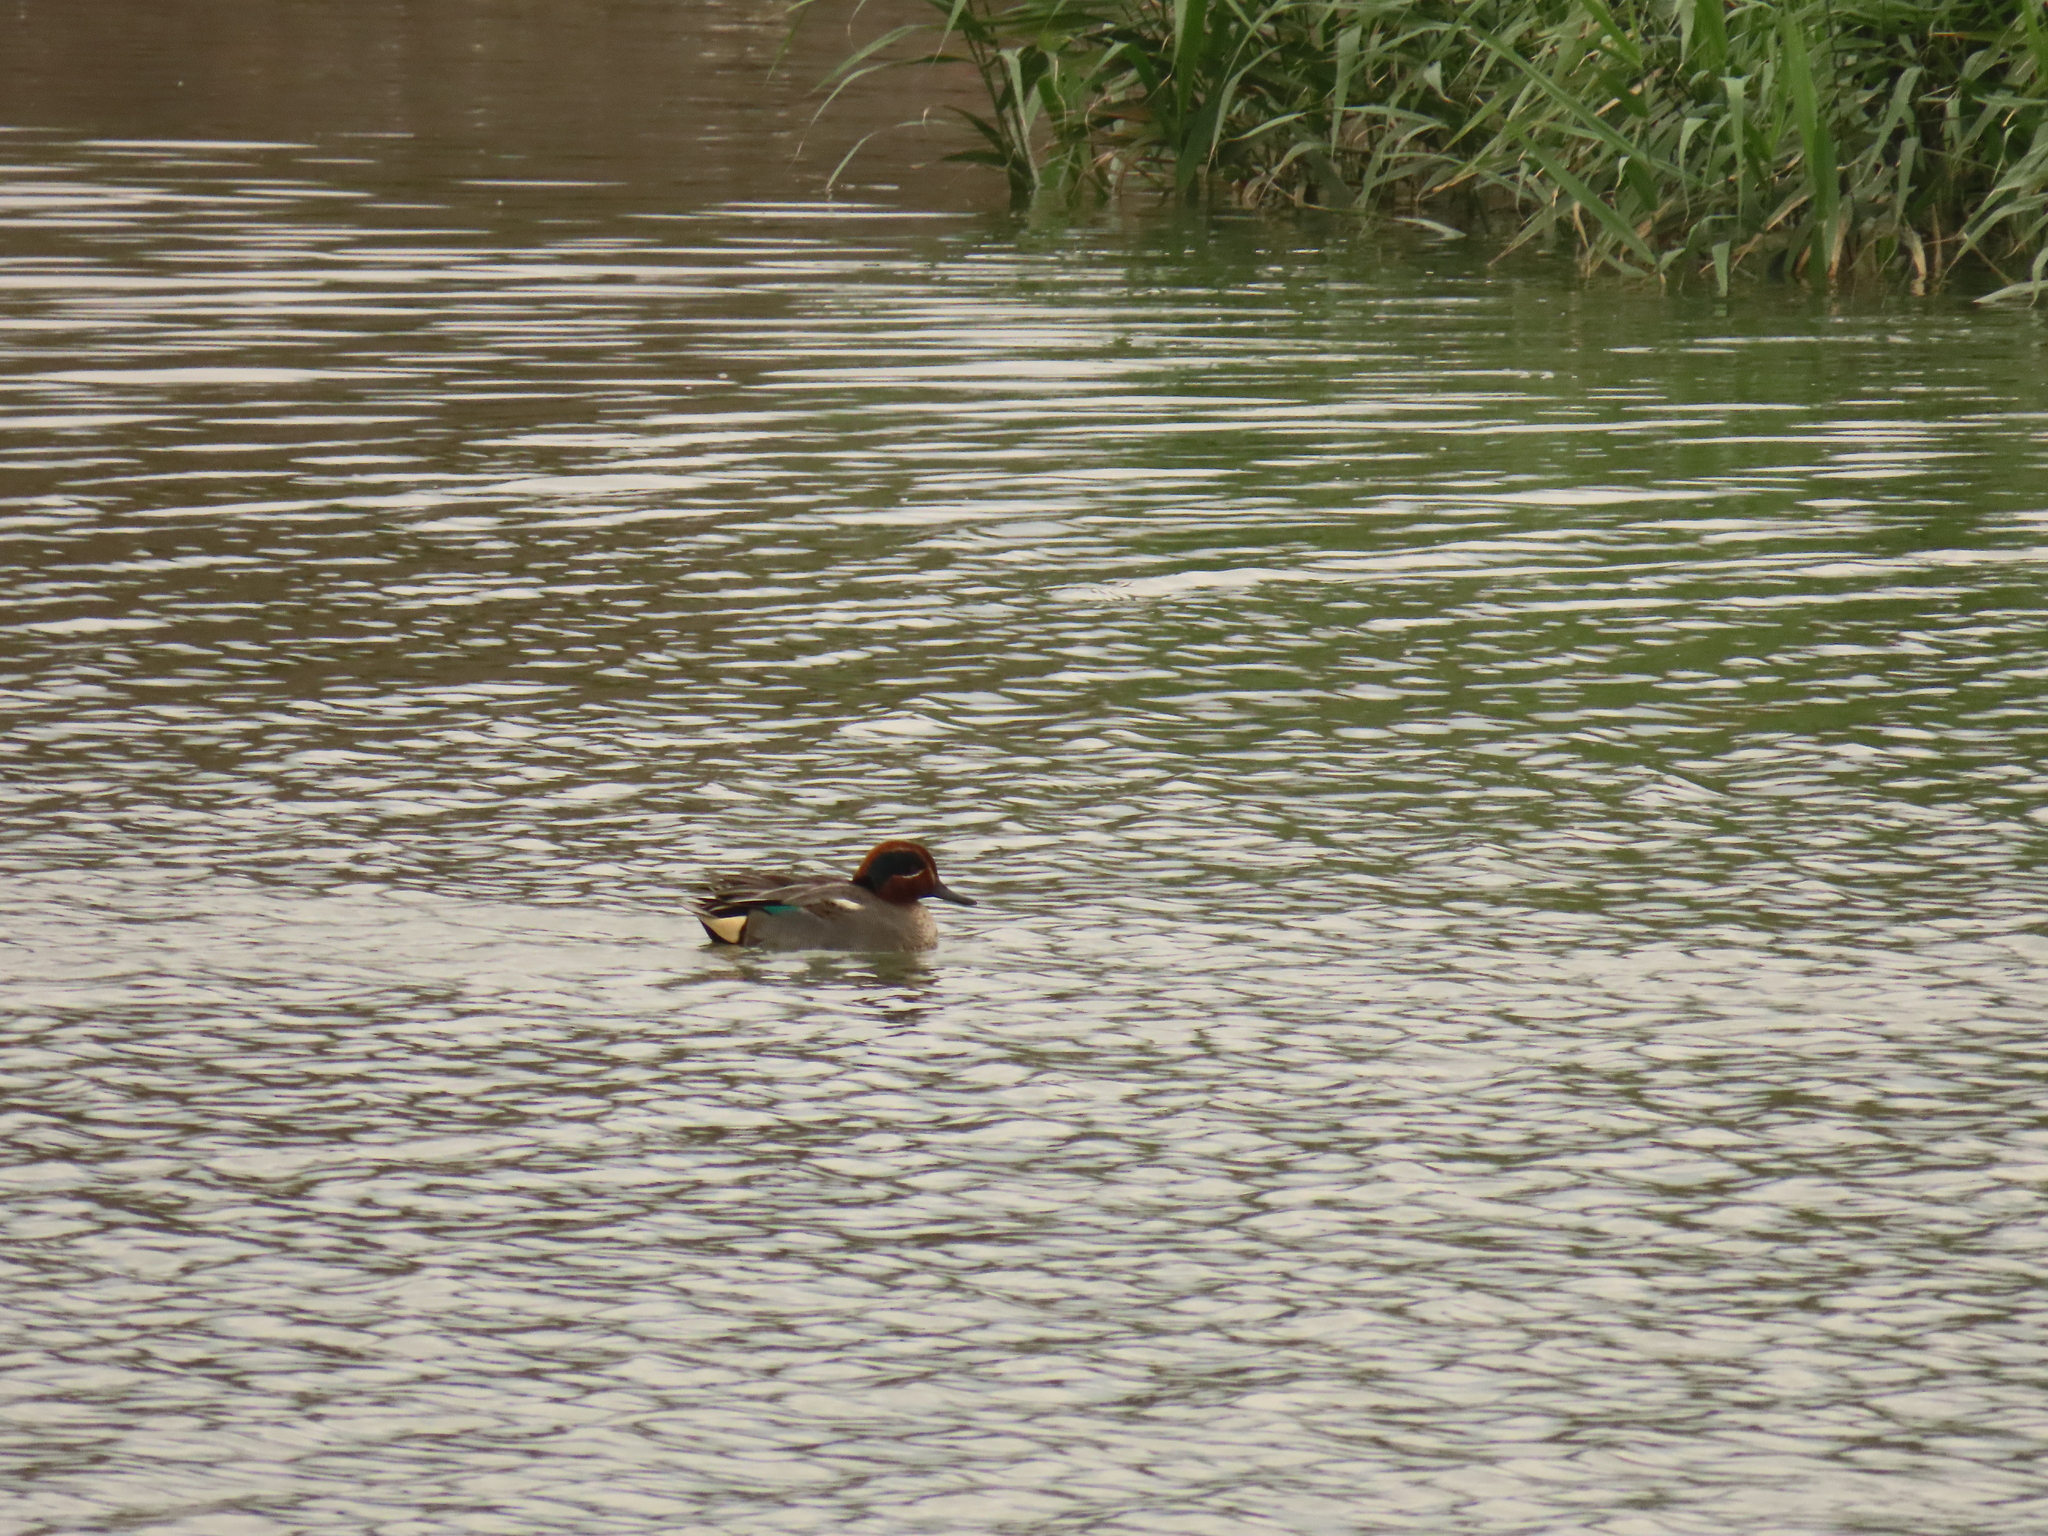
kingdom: Animalia
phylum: Chordata
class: Aves
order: Anseriformes
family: Anatidae
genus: Anas
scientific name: Anas crecca
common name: Eurasian teal
